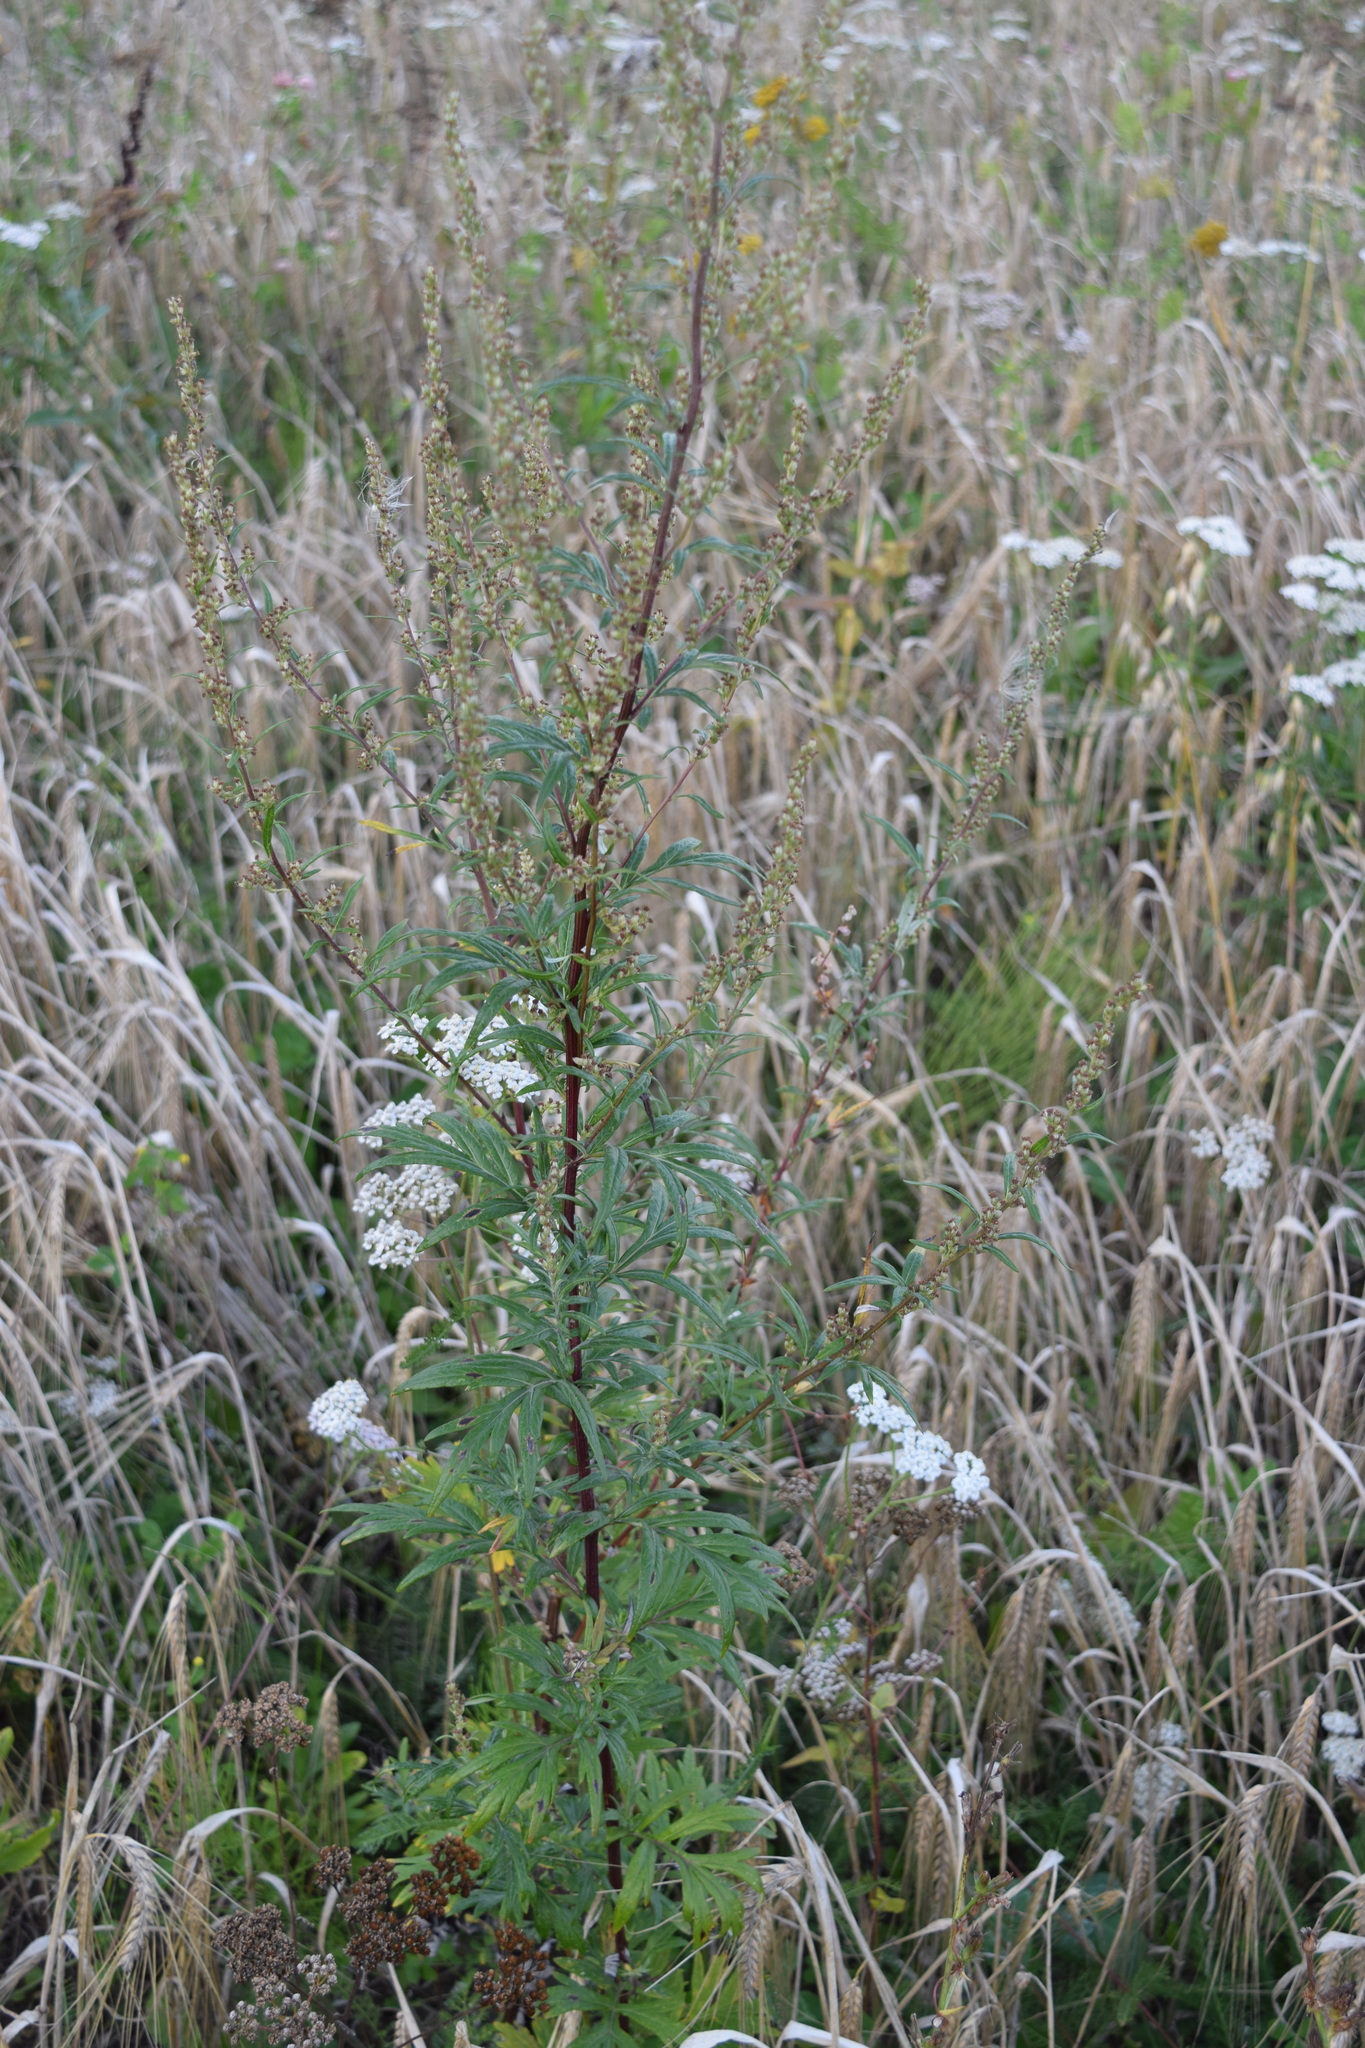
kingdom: Plantae
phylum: Tracheophyta
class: Magnoliopsida
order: Asterales
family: Asteraceae
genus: Artemisia
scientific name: Artemisia vulgaris
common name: Mugwort
